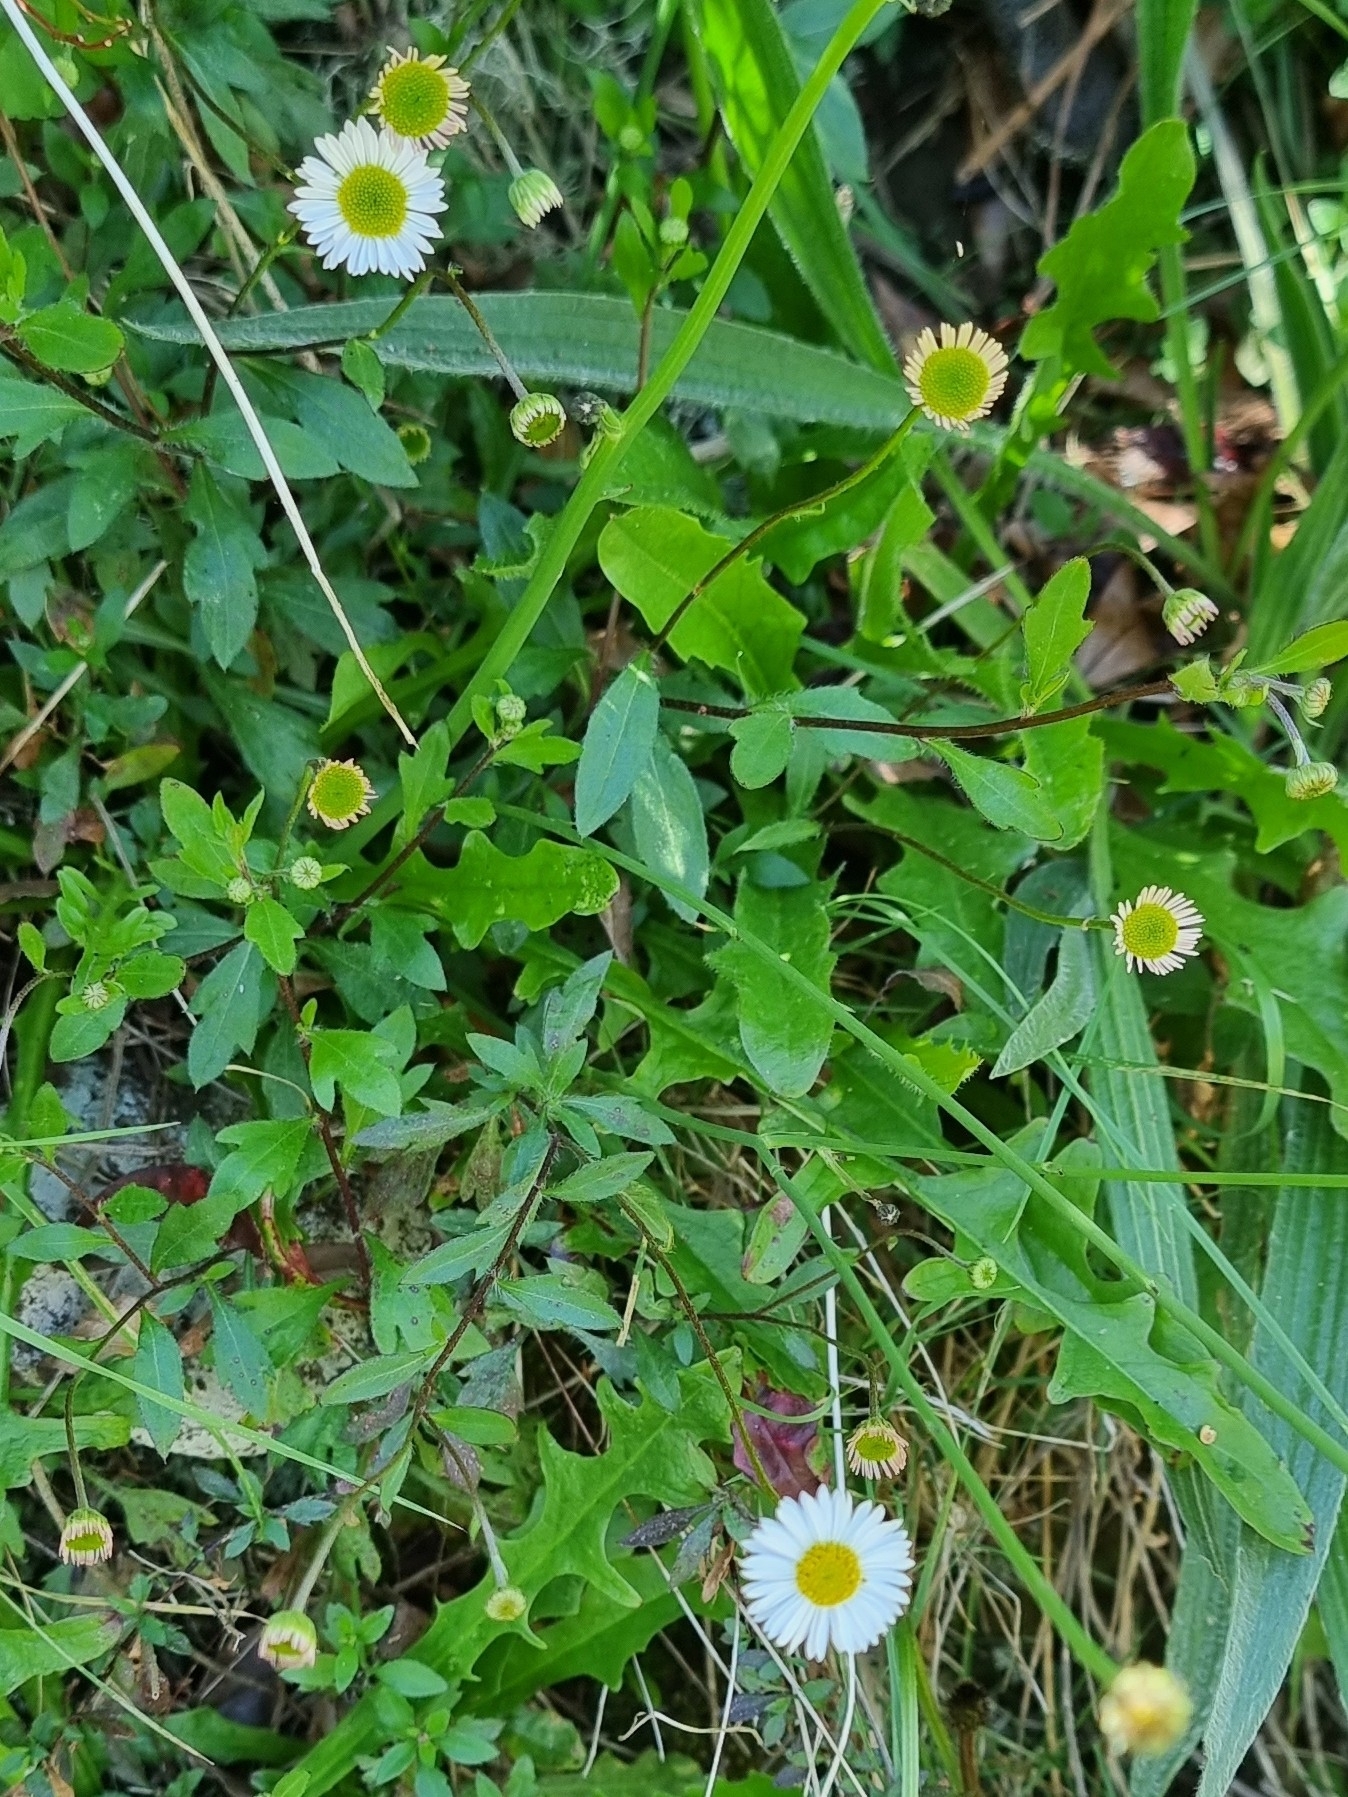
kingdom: Plantae
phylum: Tracheophyta
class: Magnoliopsida
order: Asterales
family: Asteraceae
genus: Erigeron
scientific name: Erigeron karvinskianus
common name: Mexican fleabane
